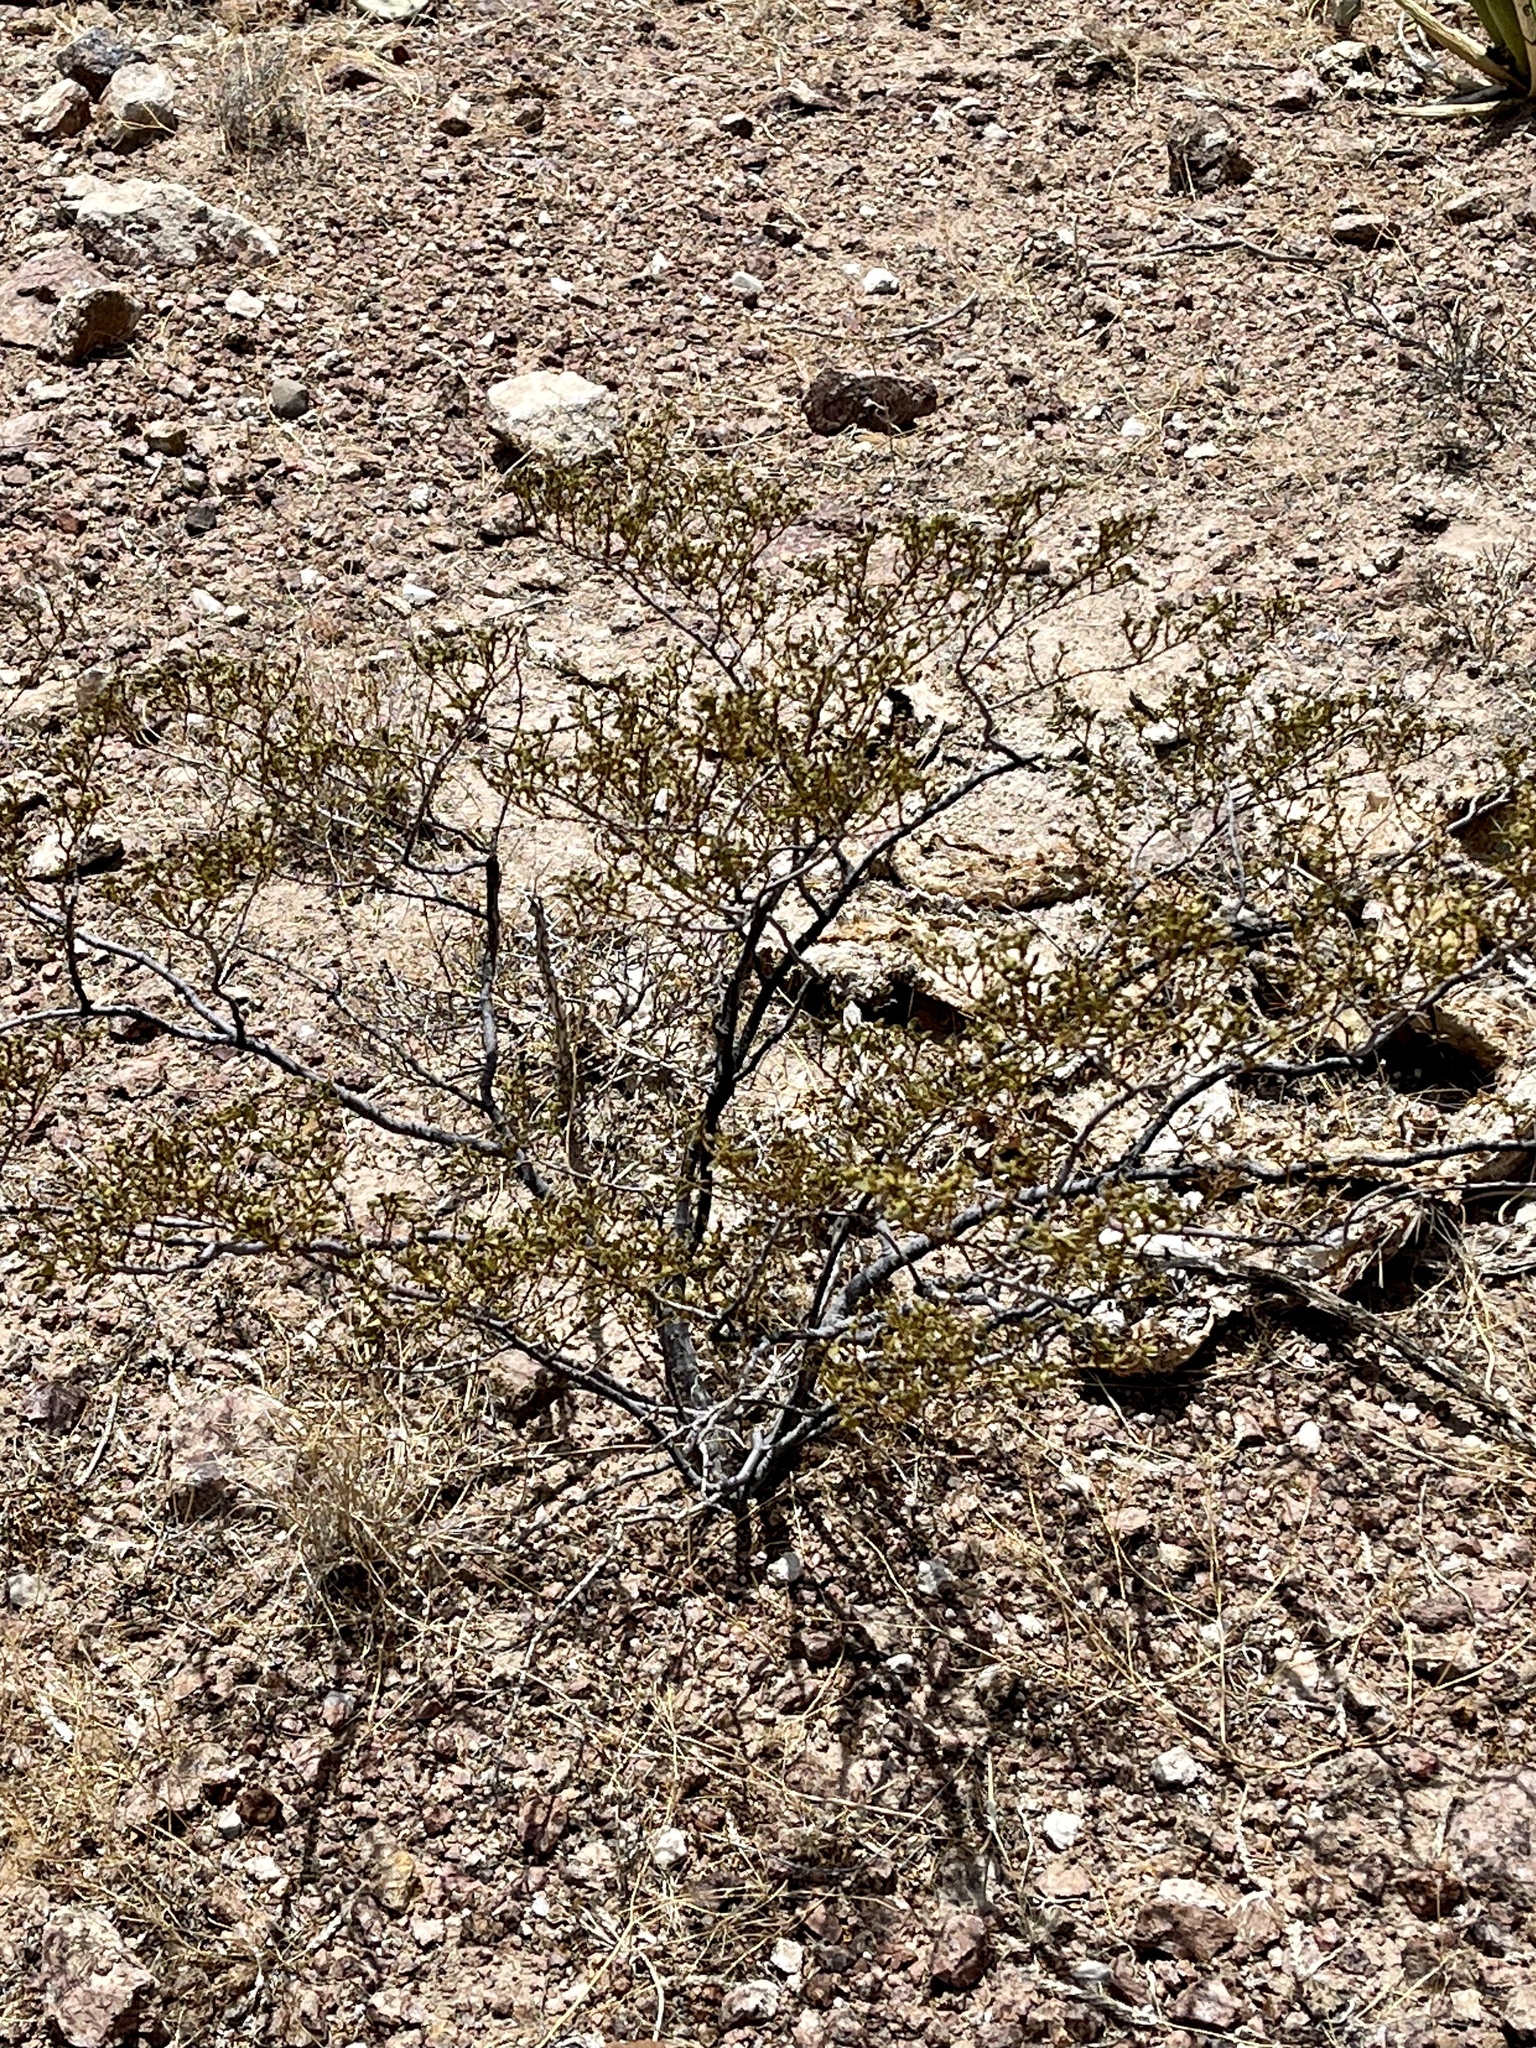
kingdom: Plantae
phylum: Tracheophyta
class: Magnoliopsida
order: Zygophyllales
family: Zygophyllaceae
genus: Larrea
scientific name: Larrea tridentata
